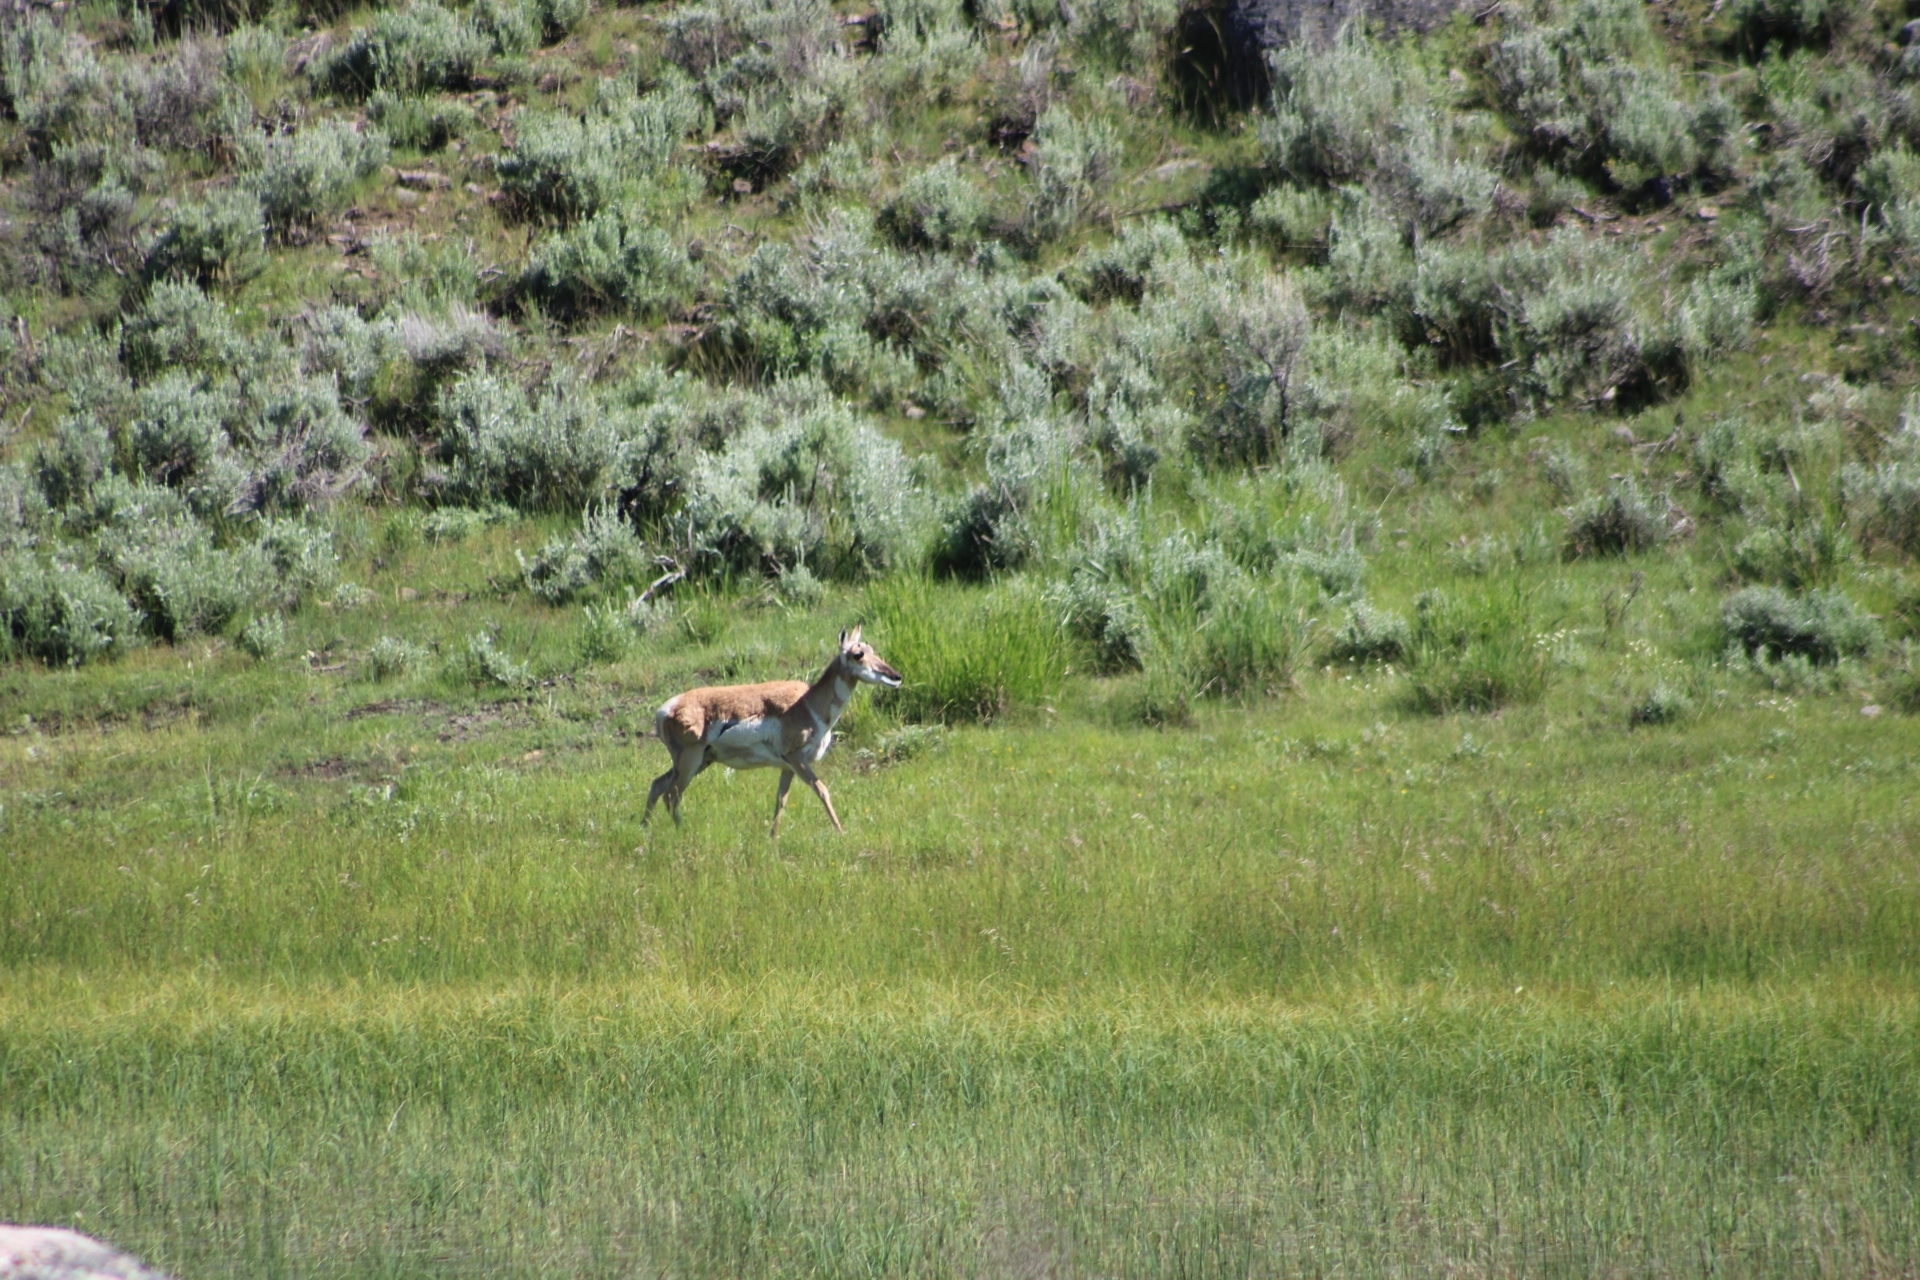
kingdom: Animalia
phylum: Chordata
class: Mammalia
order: Artiodactyla
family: Antilocapridae
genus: Antilocapra
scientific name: Antilocapra americana
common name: Pronghorn
